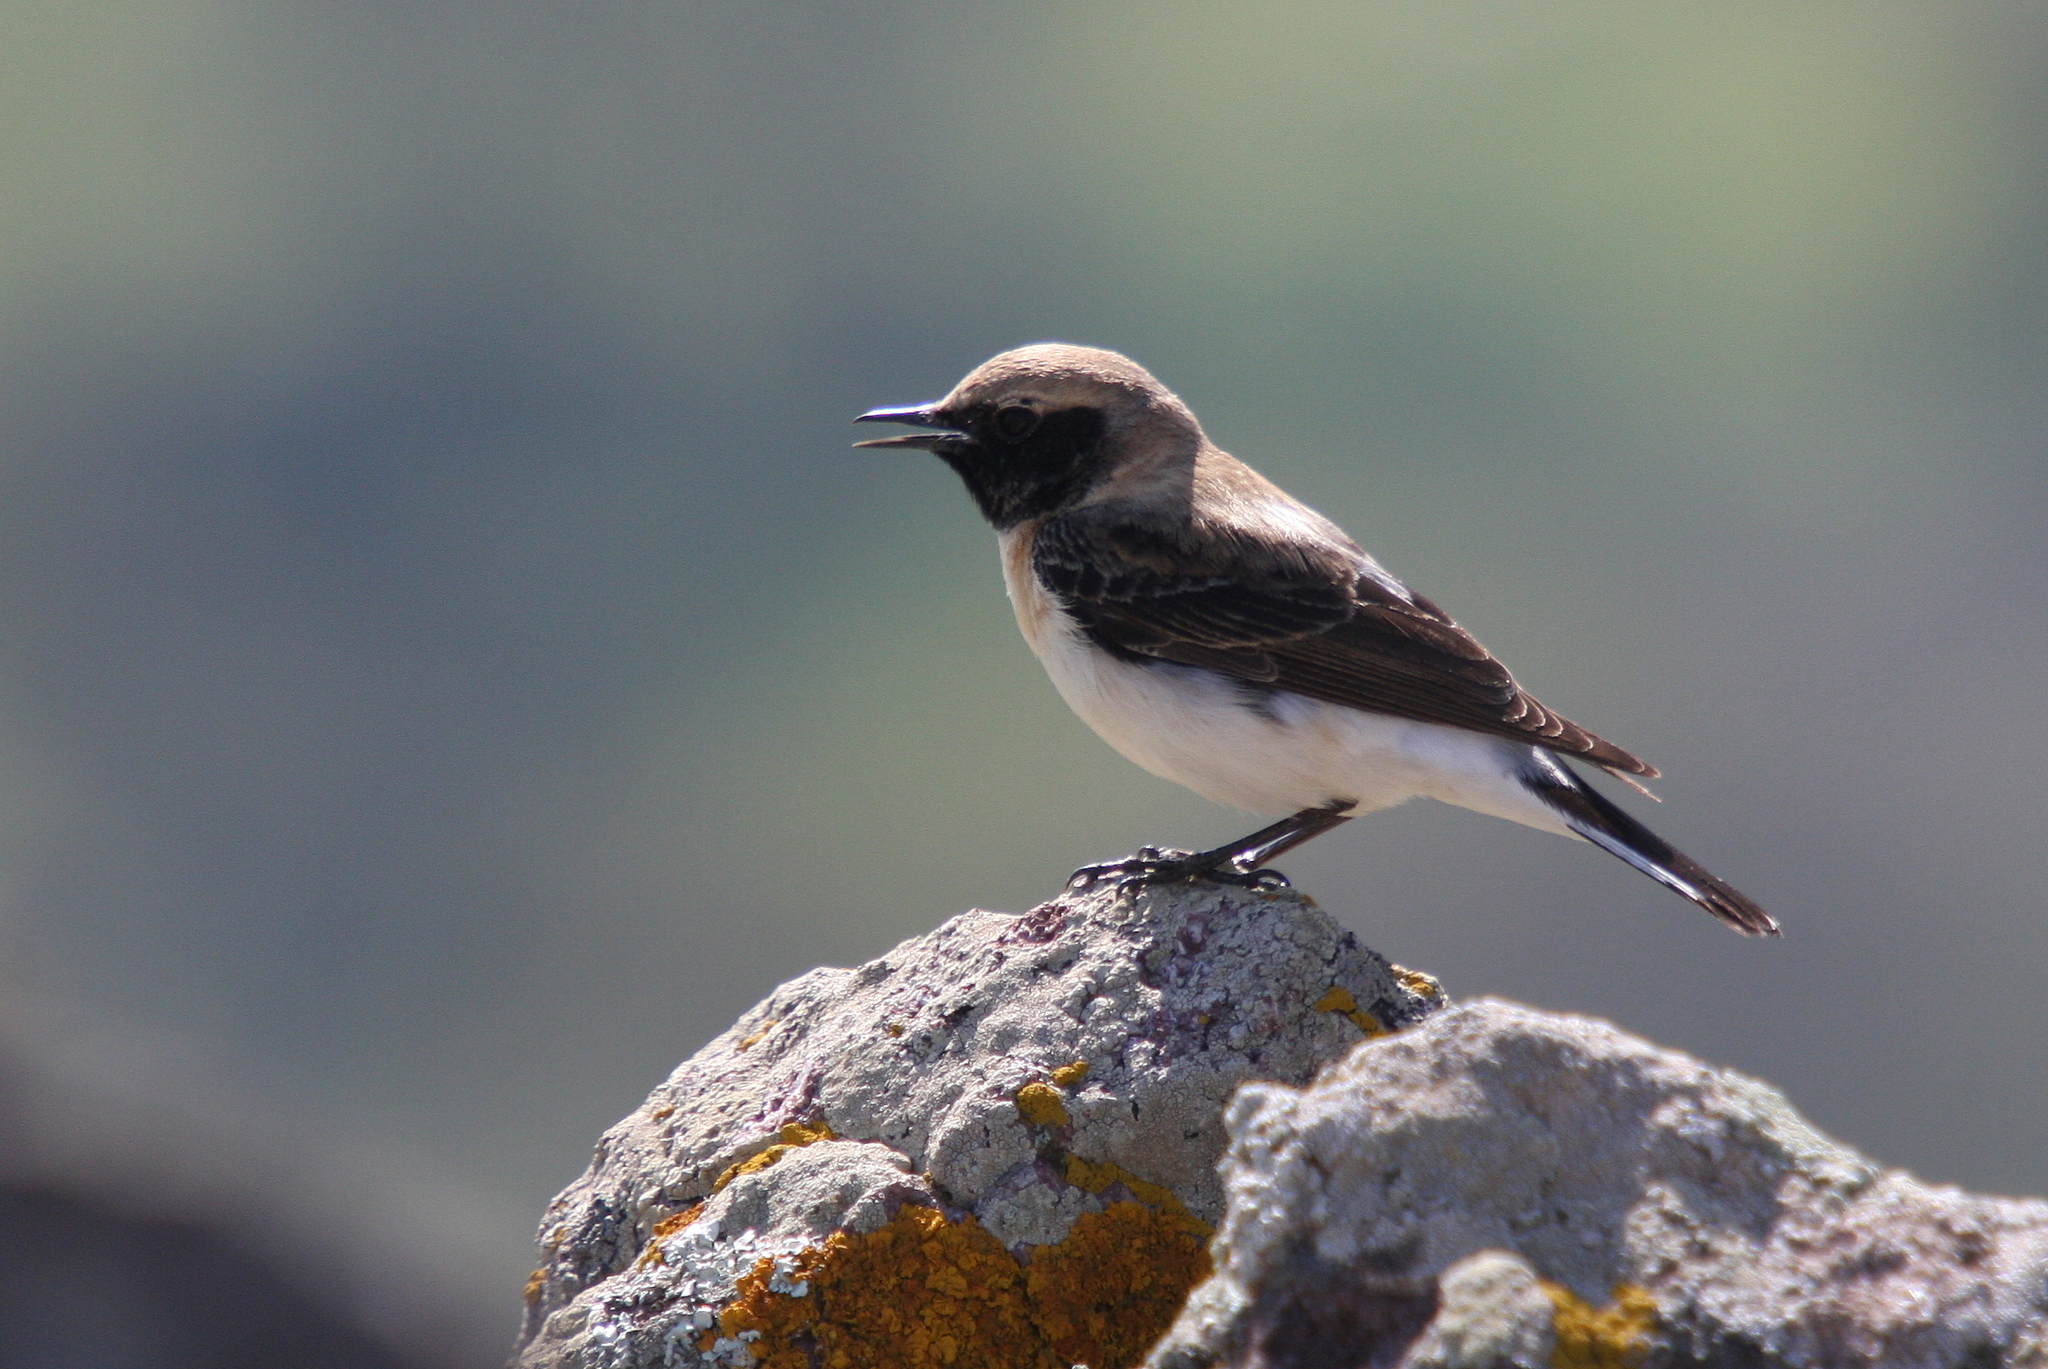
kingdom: Animalia
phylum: Chordata
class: Aves
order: Passeriformes
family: Muscicapidae
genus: Oenanthe
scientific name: Oenanthe hispanica
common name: Black-eared wheatear
